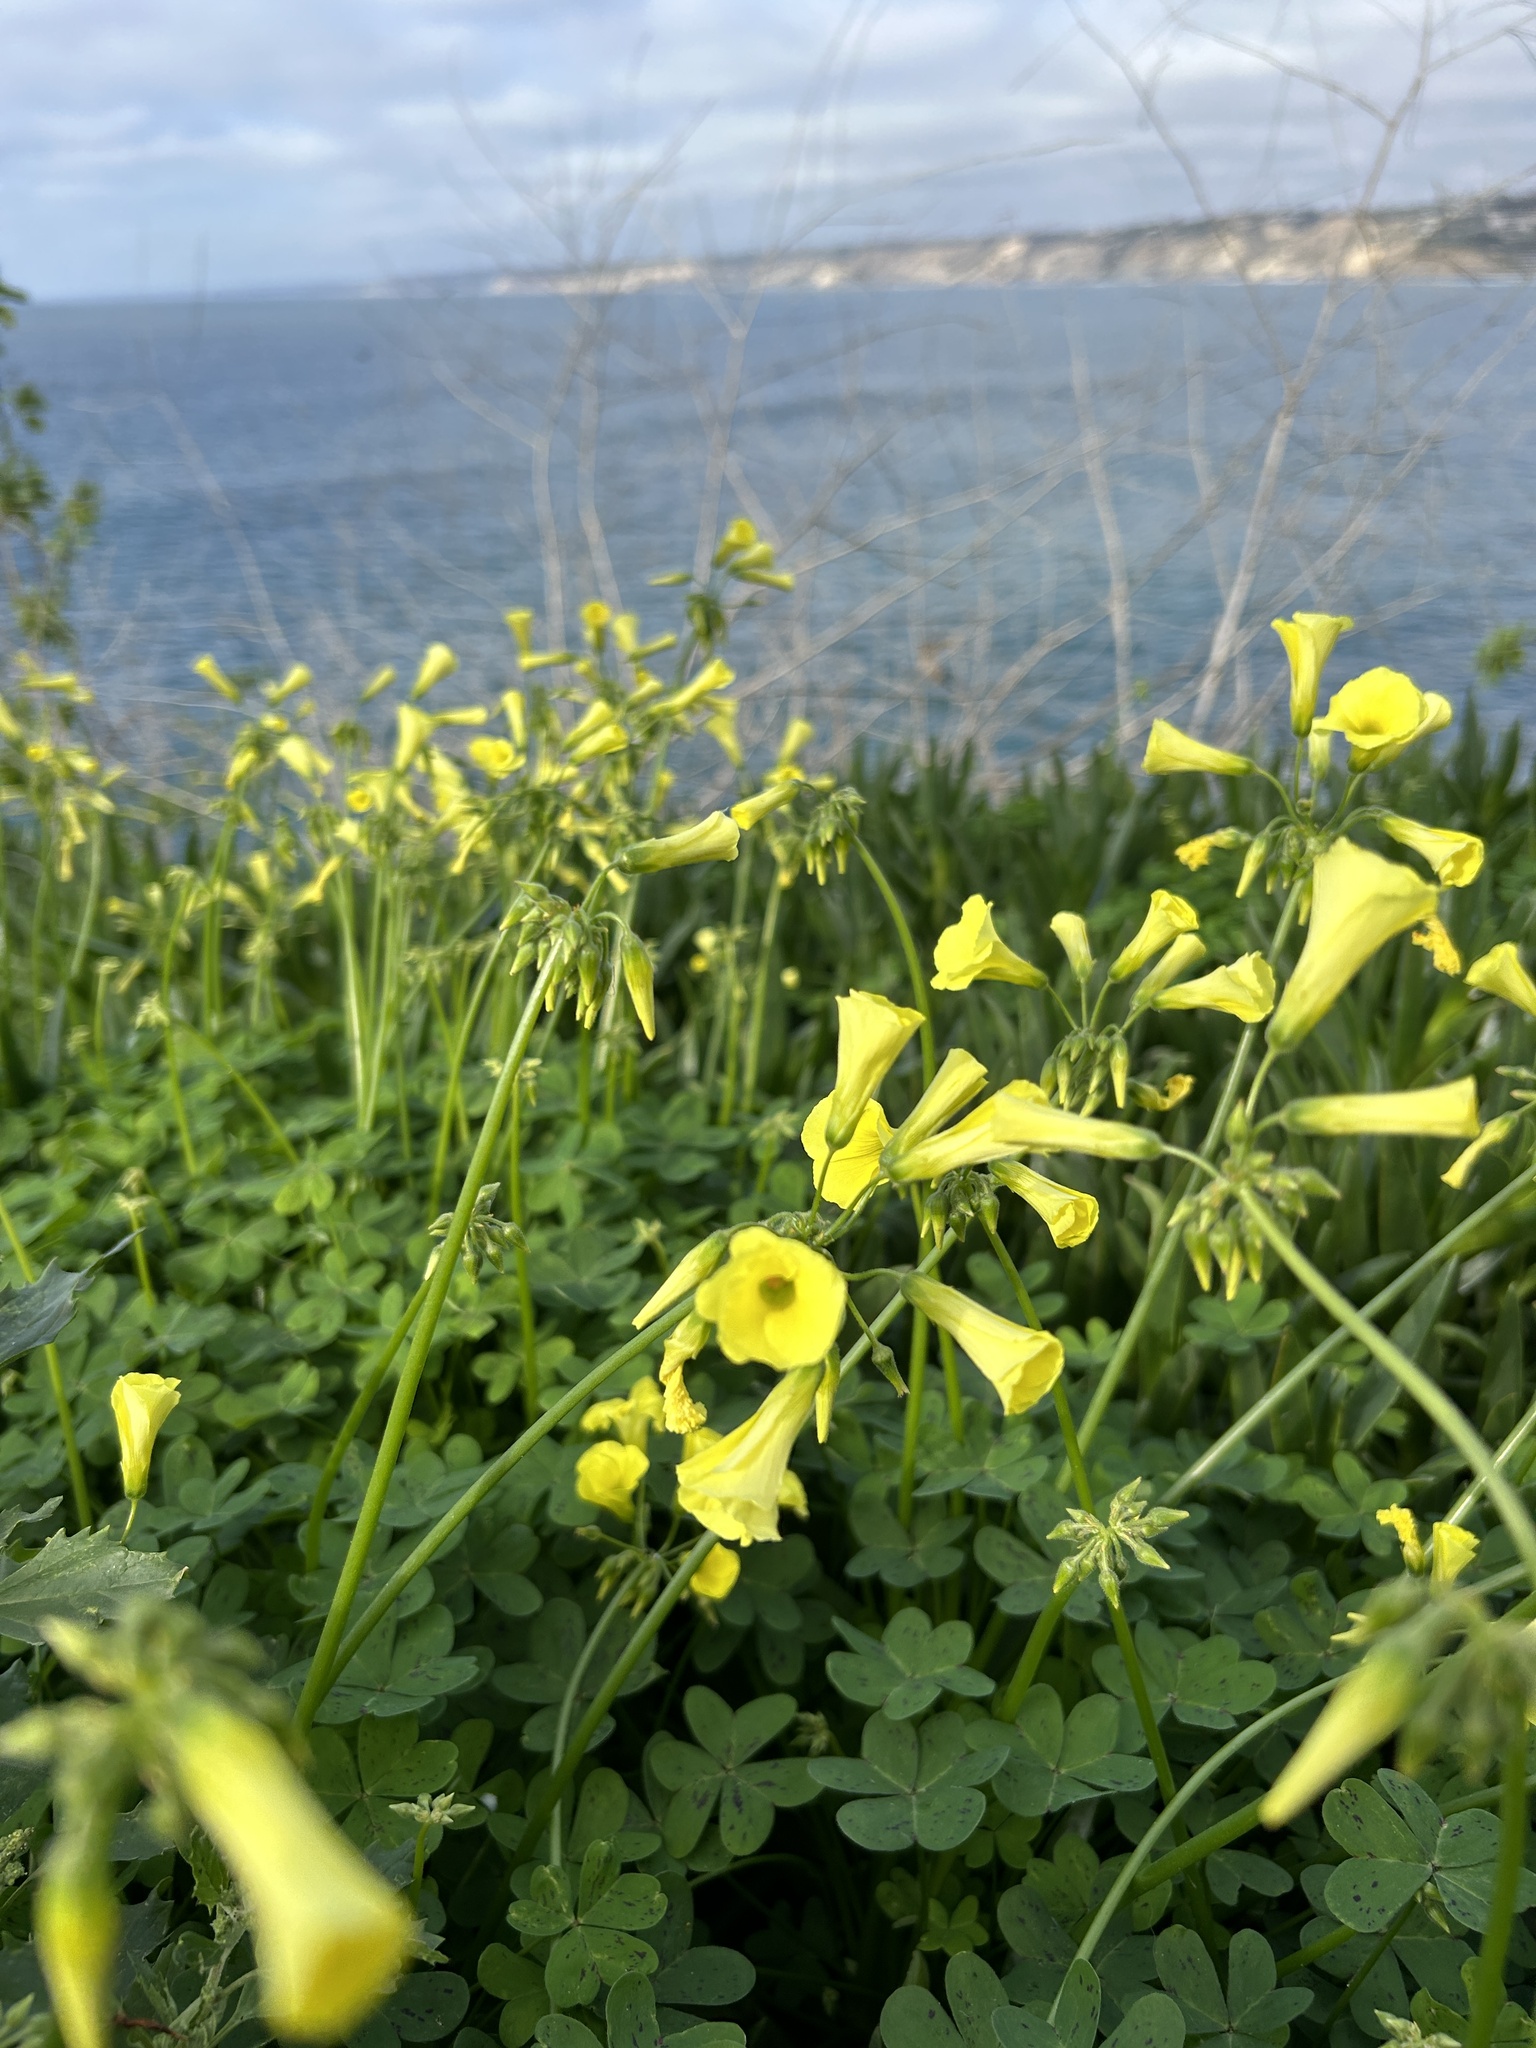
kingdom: Plantae
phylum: Tracheophyta
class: Magnoliopsida
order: Oxalidales
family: Oxalidaceae
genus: Oxalis
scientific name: Oxalis pes-caprae
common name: Bermuda-buttercup
